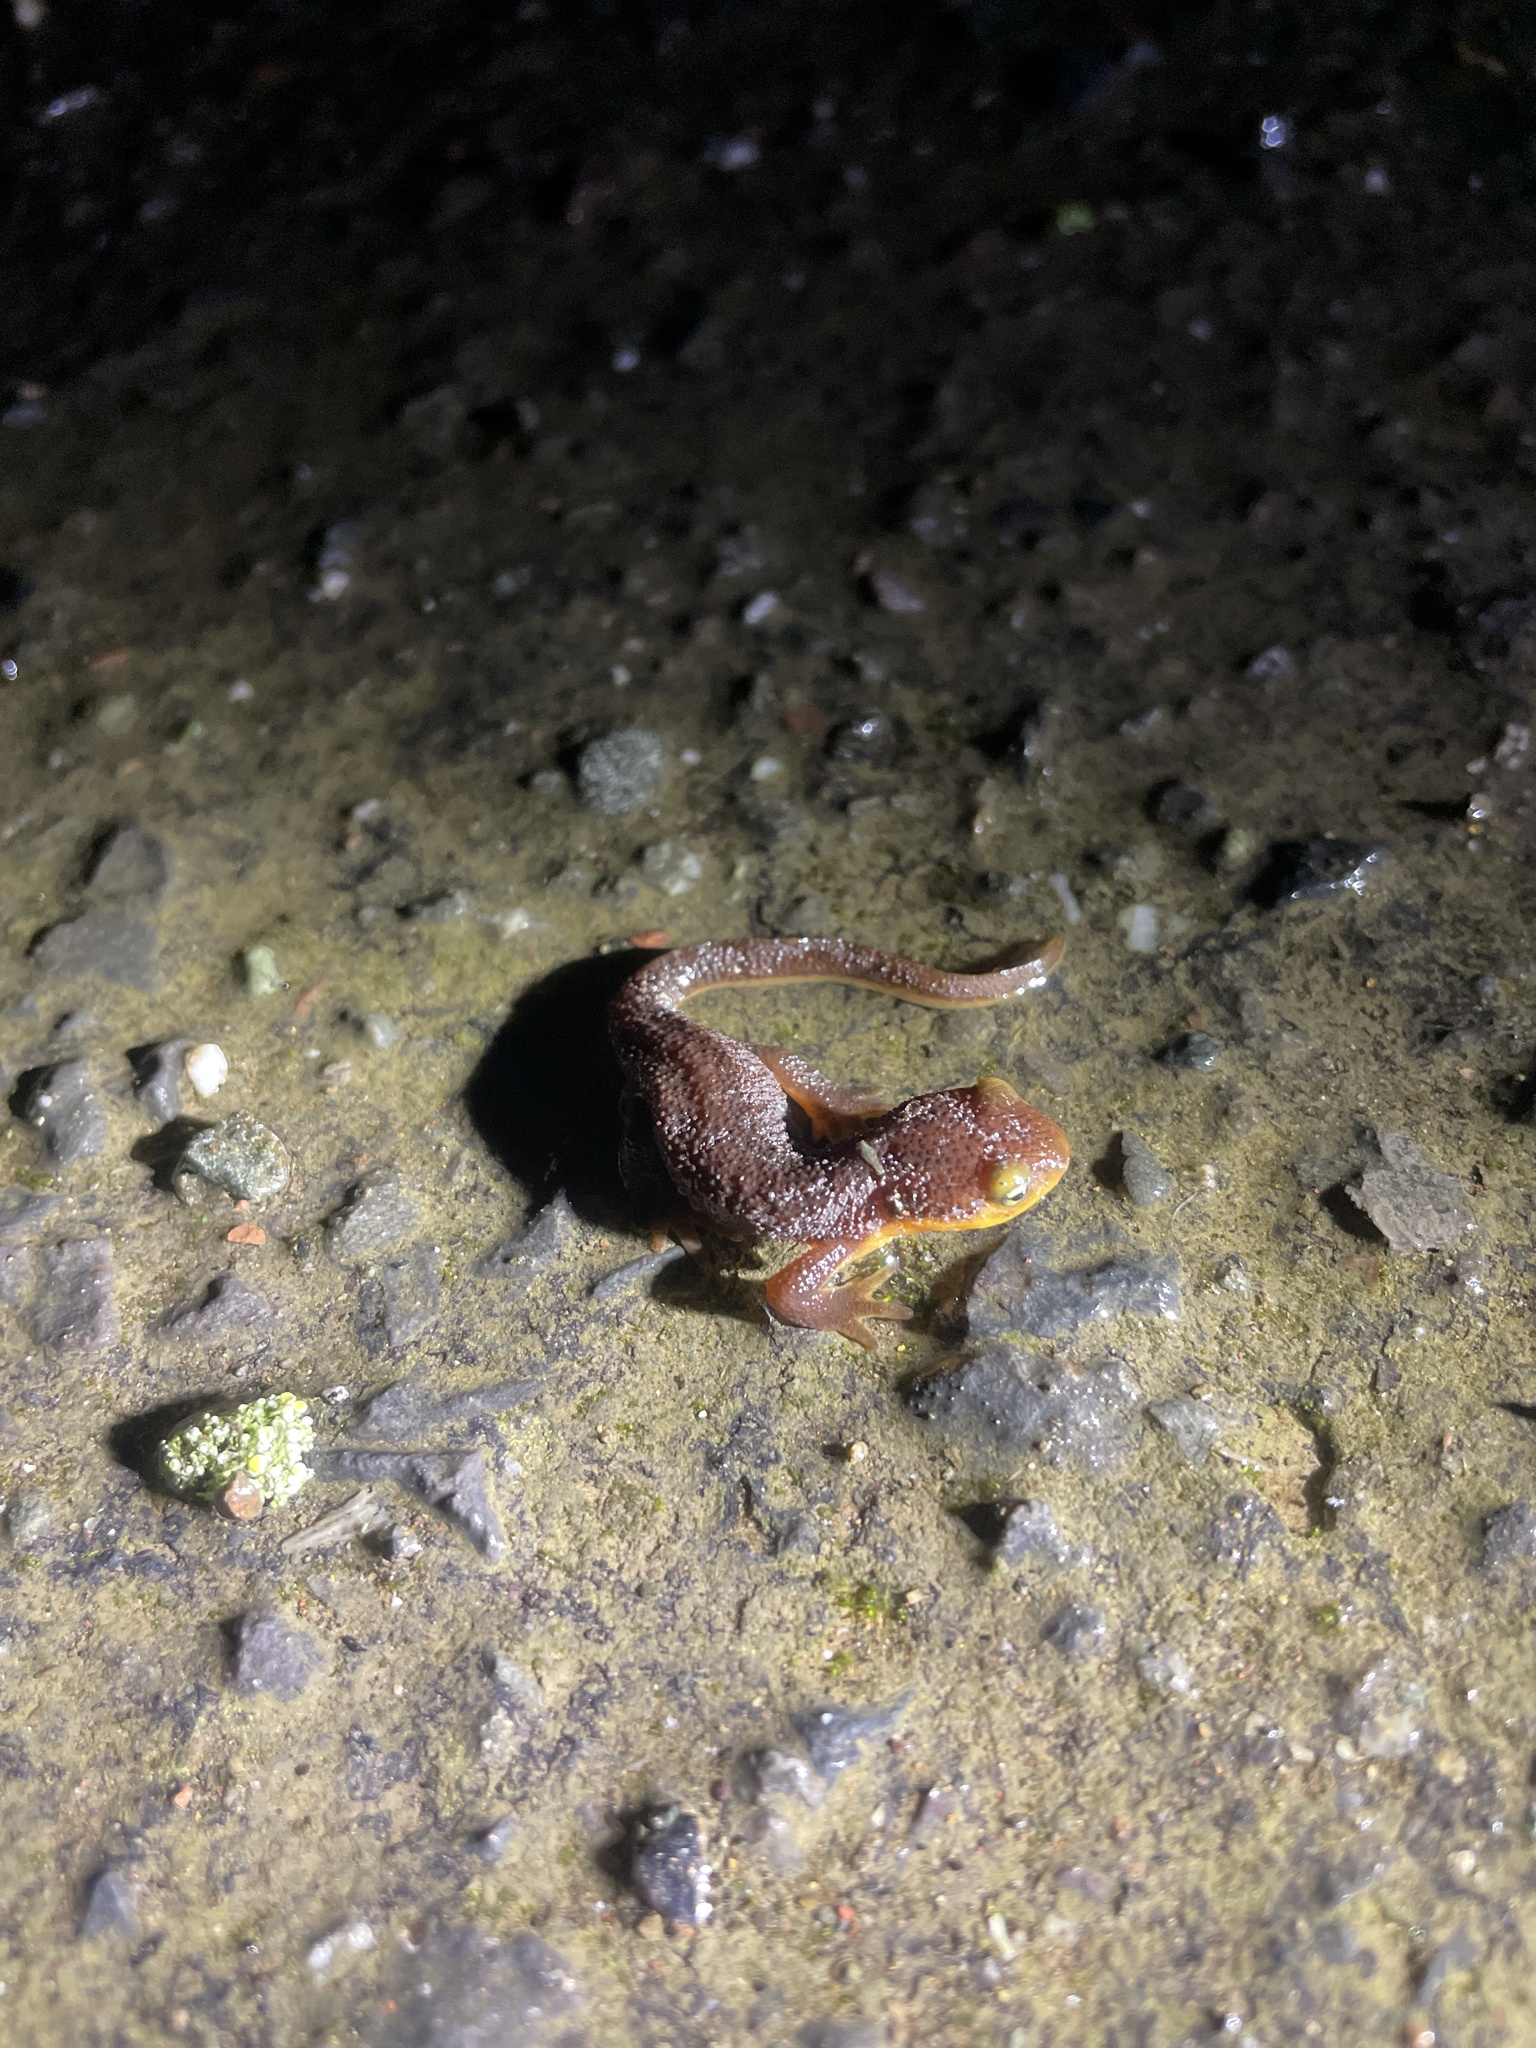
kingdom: Animalia
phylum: Chordata
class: Amphibia
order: Caudata
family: Salamandridae
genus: Taricha
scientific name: Taricha torosa
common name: California newt
